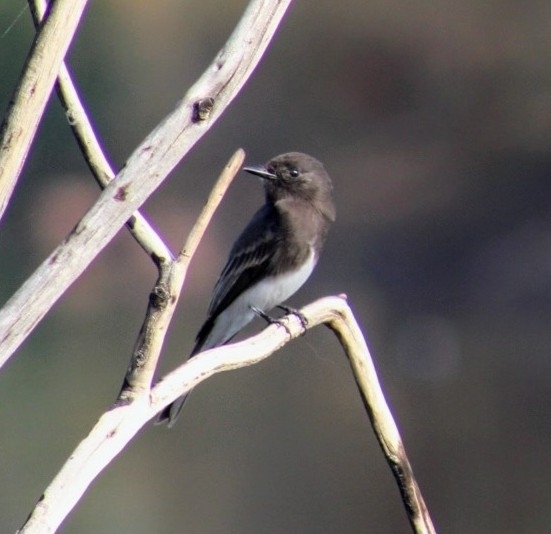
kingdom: Animalia
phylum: Chordata
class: Aves
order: Passeriformes
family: Tyrannidae
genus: Sayornis
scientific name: Sayornis nigricans
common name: Black phoebe
